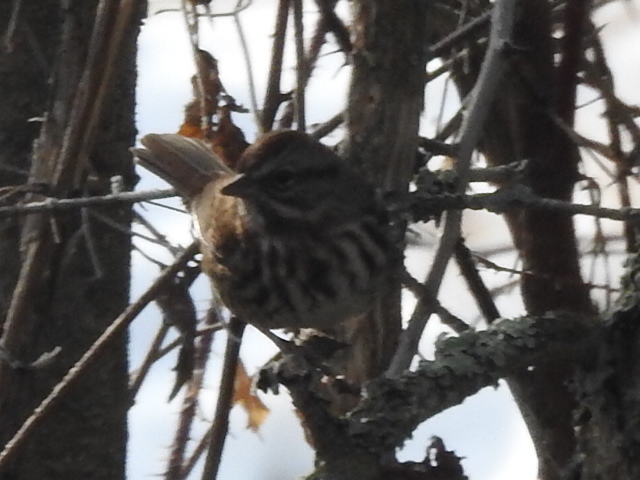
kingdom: Animalia
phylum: Chordata
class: Aves
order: Passeriformes
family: Passerellidae
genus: Melospiza
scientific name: Melospiza melodia
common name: Song sparrow
